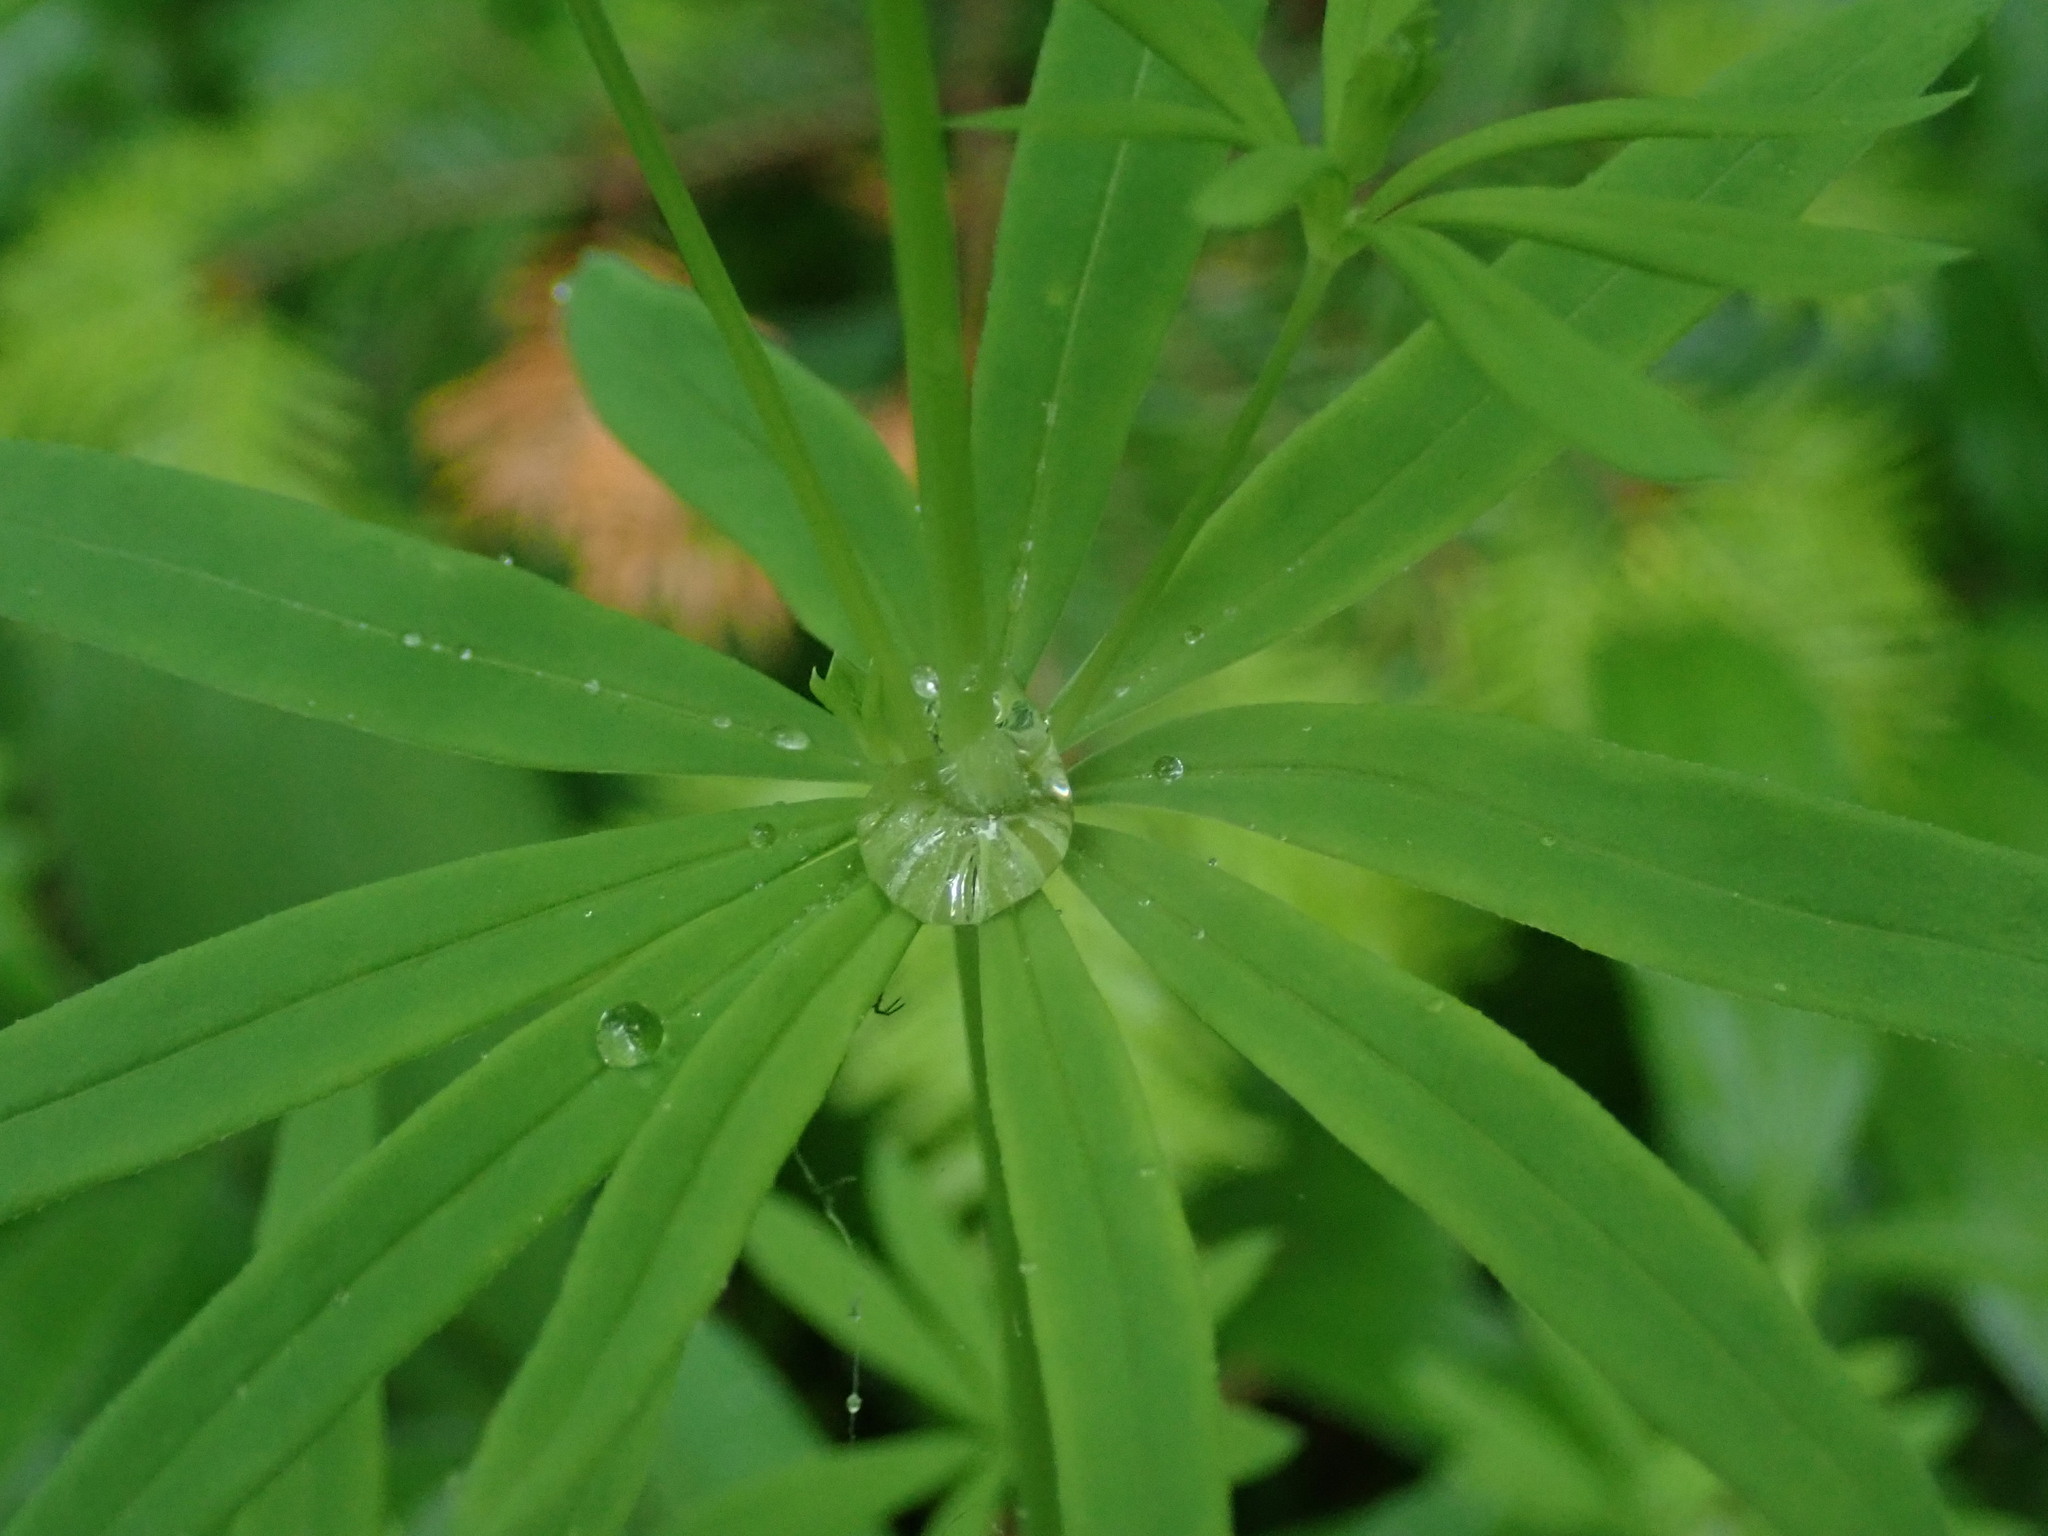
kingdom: Plantae
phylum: Tracheophyta
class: Magnoliopsida
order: Gentianales
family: Rubiaceae
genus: Galium
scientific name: Galium intermedium
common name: Bedstraw
